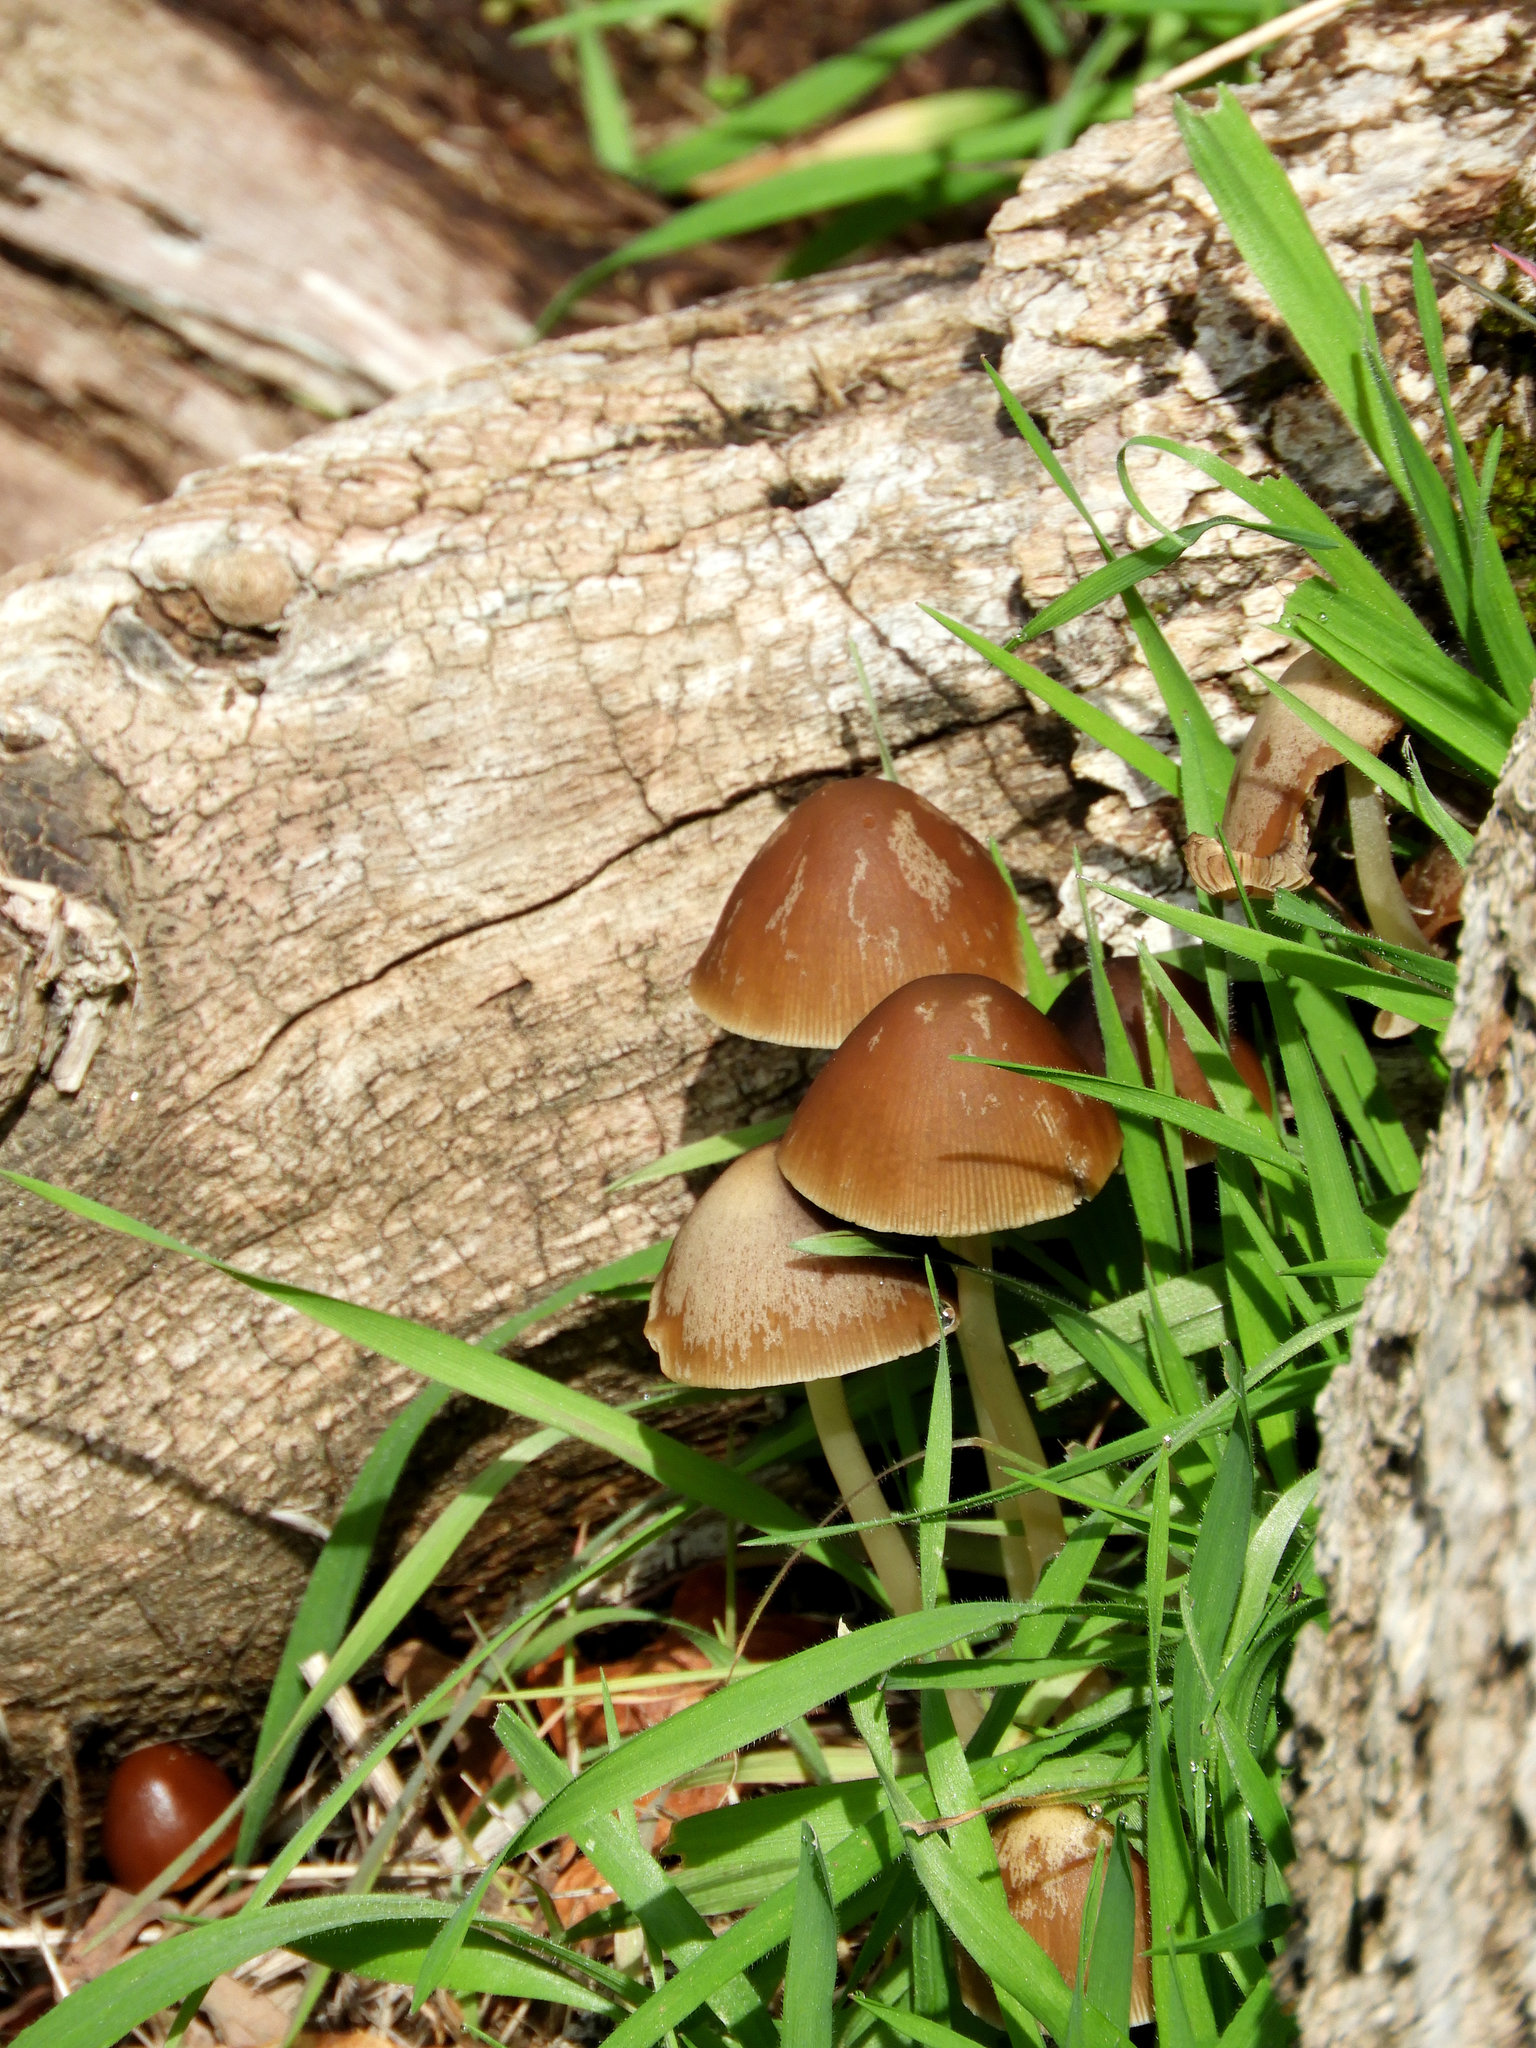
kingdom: Fungi
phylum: Basidiomycota
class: Agaricomycetes
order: Agaricales
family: Psathyrellaceae
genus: Parasola
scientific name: Parasola conopilea
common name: Conical brittlestem
